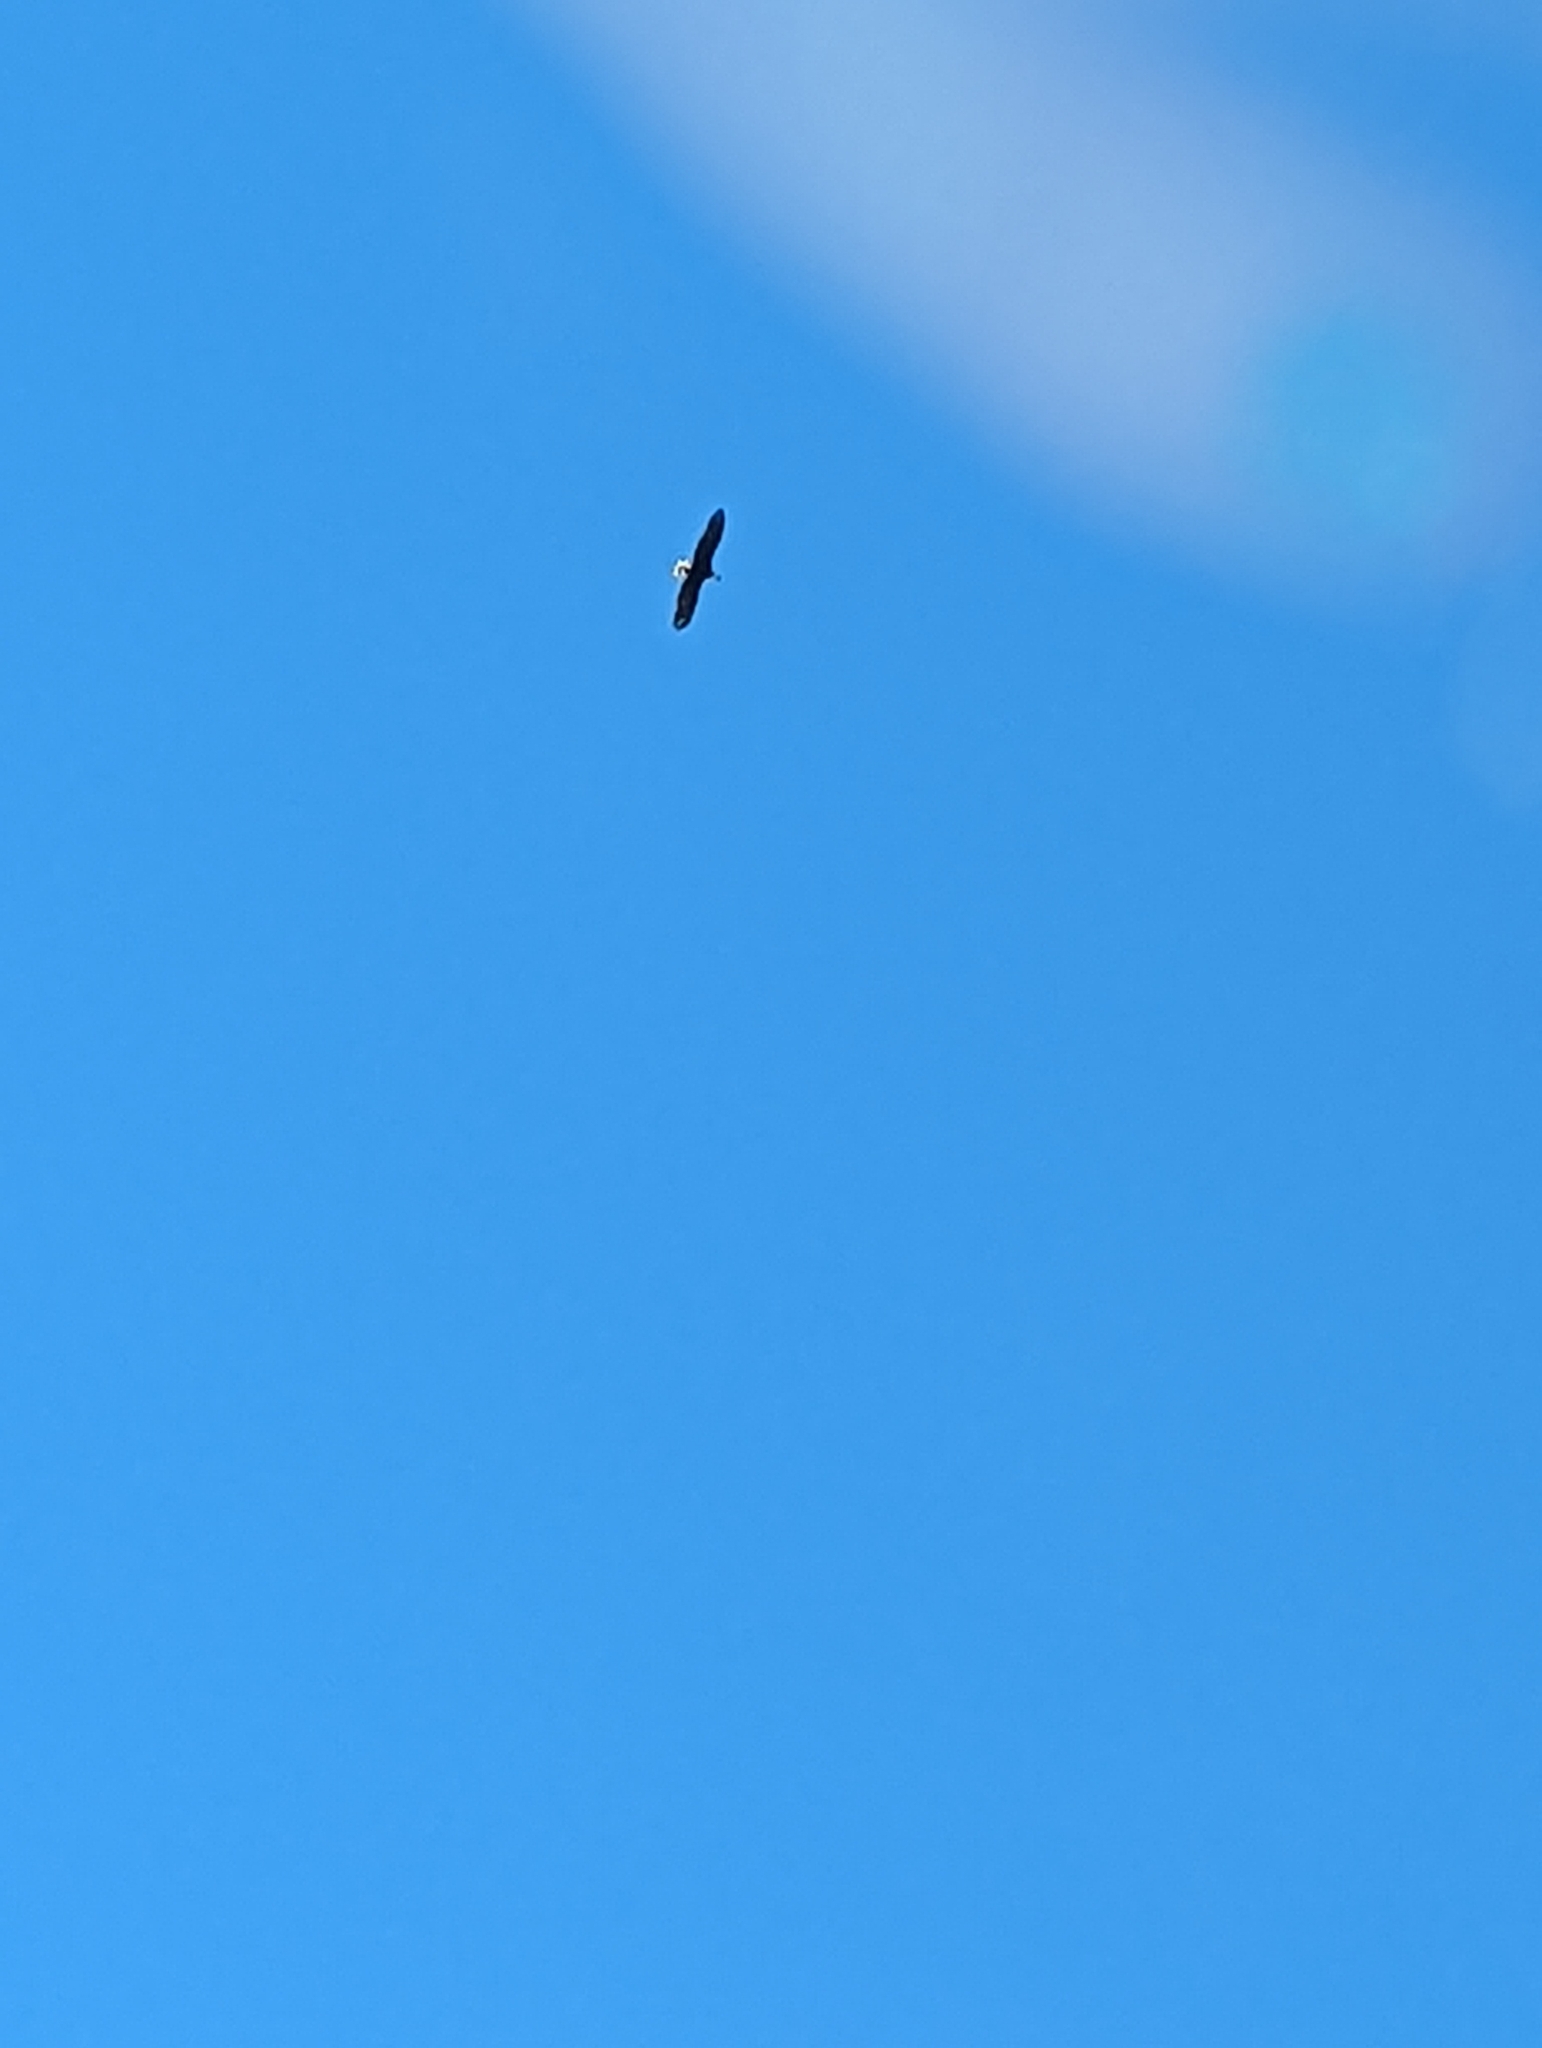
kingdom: Animalia
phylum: Chordata
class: Aves
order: Accipitriformes
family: Accipitridae
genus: Haliaeetus
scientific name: Haliaeetus leucocephalus
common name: Bald eagle
